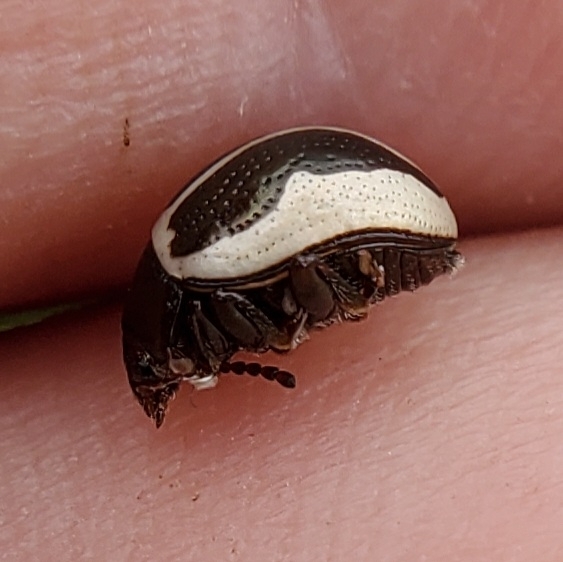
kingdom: Animalia
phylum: Arthropoda
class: Insecta
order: Coleoptera
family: Chrysomelidae
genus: Calligrapha
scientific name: Calligrapha bidenticola
